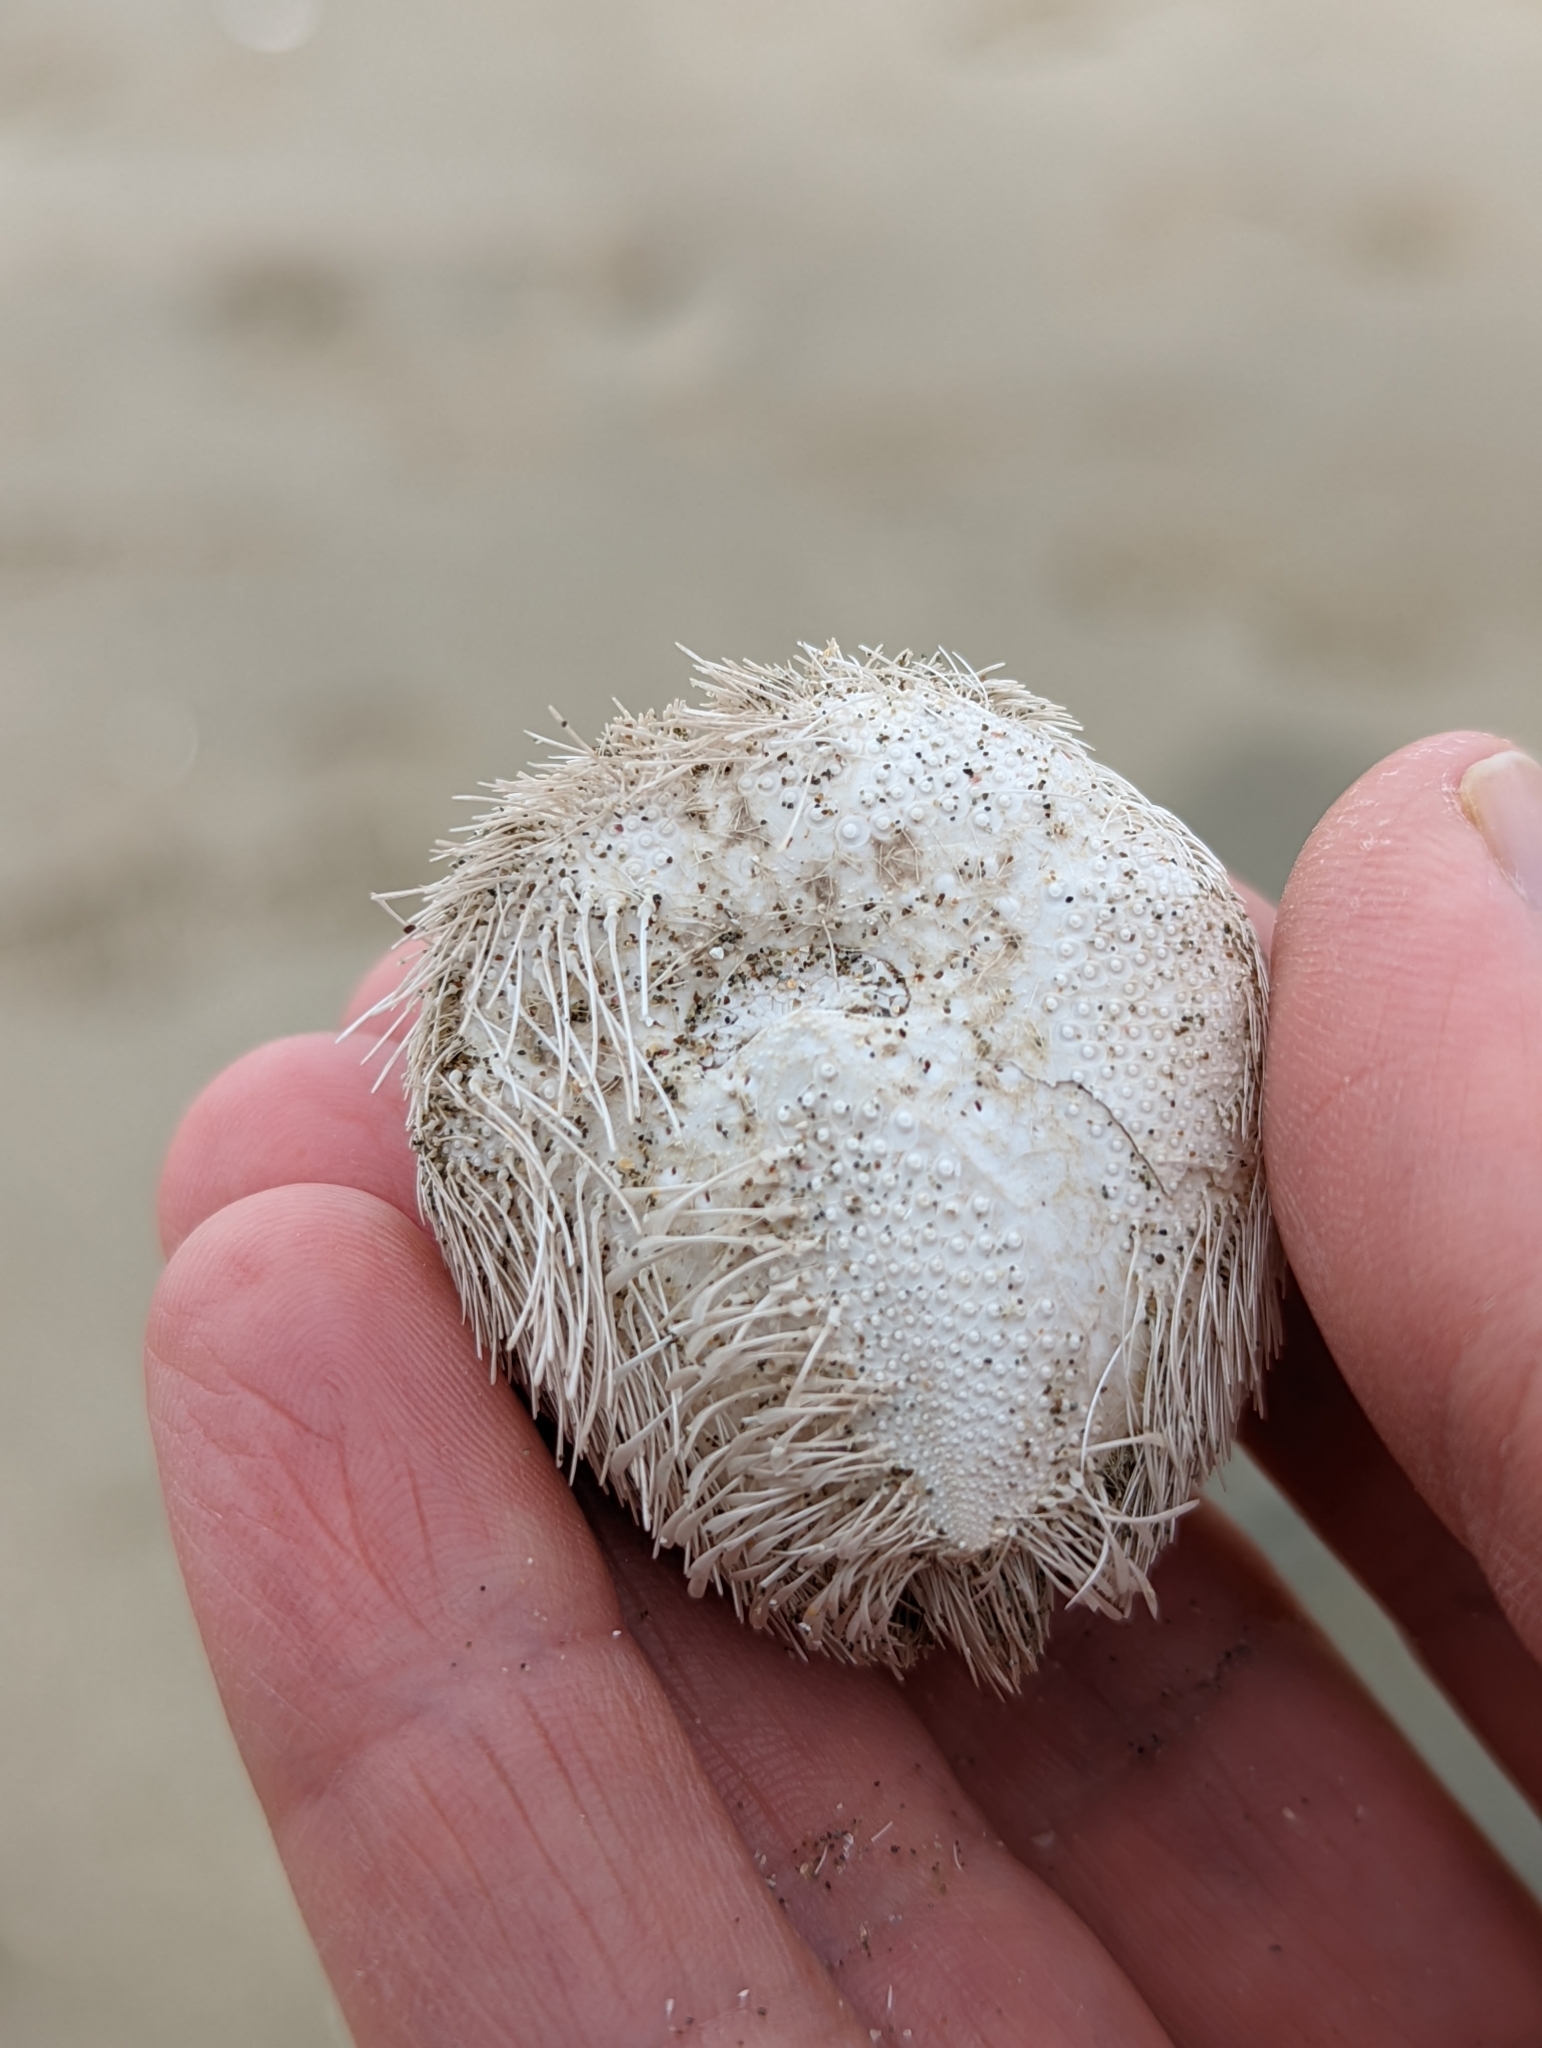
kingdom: Animalia
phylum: Echinodermata
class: Echinoidea
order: Spatangoida
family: Loveniidae
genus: Echinocardium
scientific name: Echinocardium cordatum
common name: Heart-urchin
